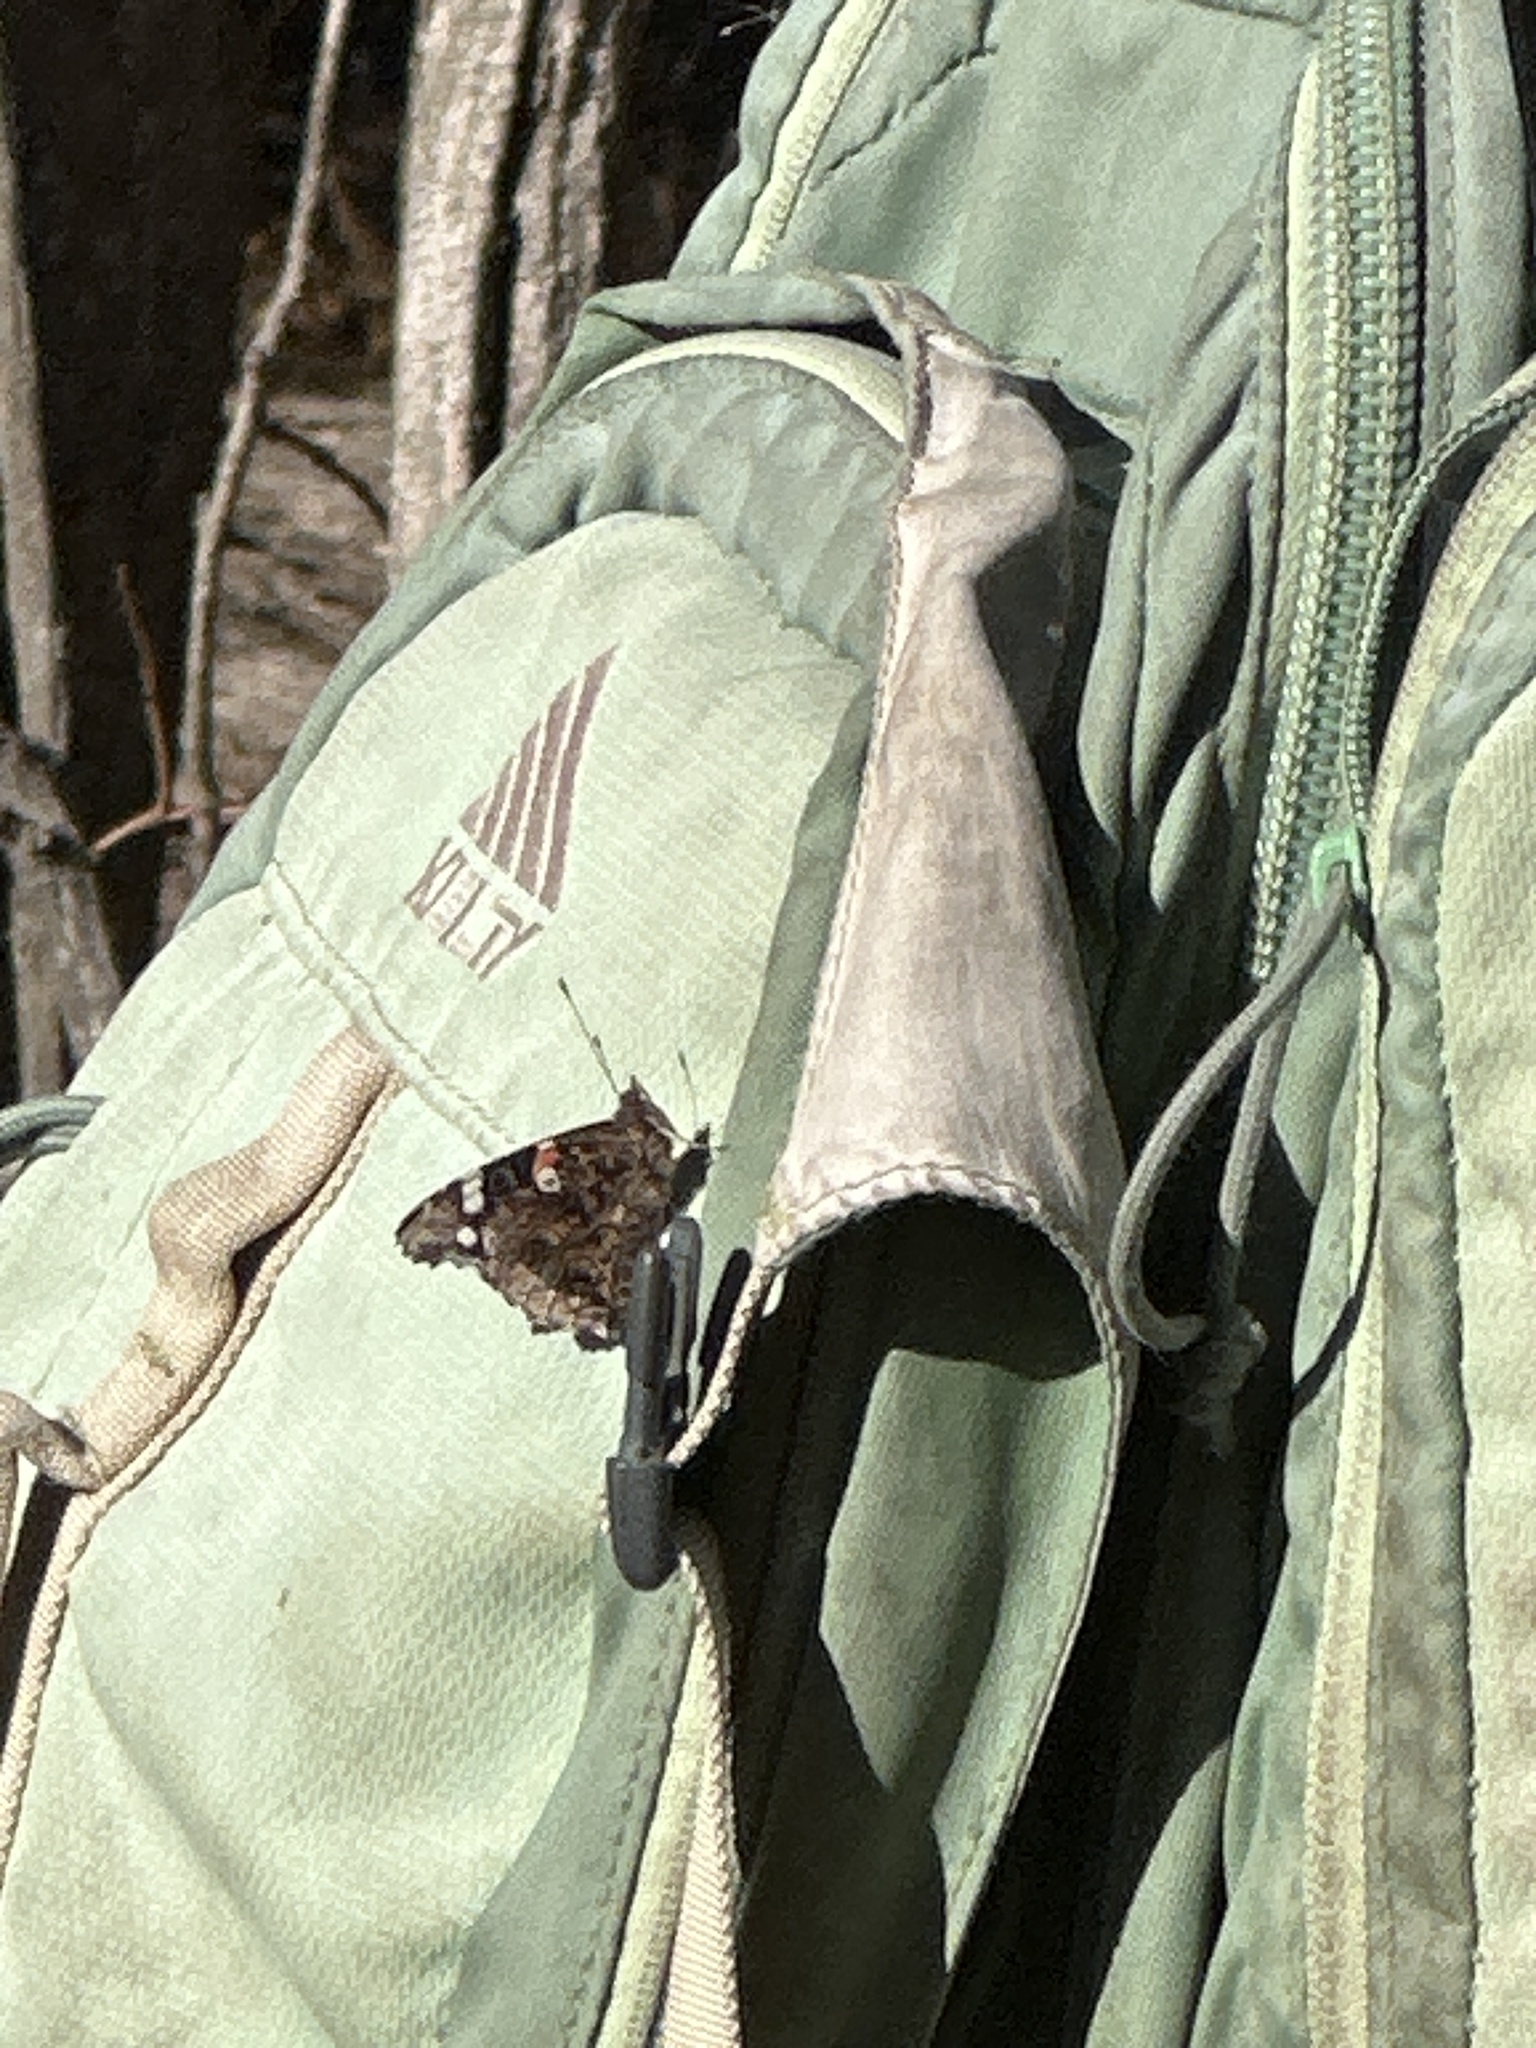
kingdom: Animalia
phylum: Arthropoda
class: Insecta
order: Lepidoptera
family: Nymphalidae
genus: Vanessa
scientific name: Vanessa atalanta
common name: Red admiral
